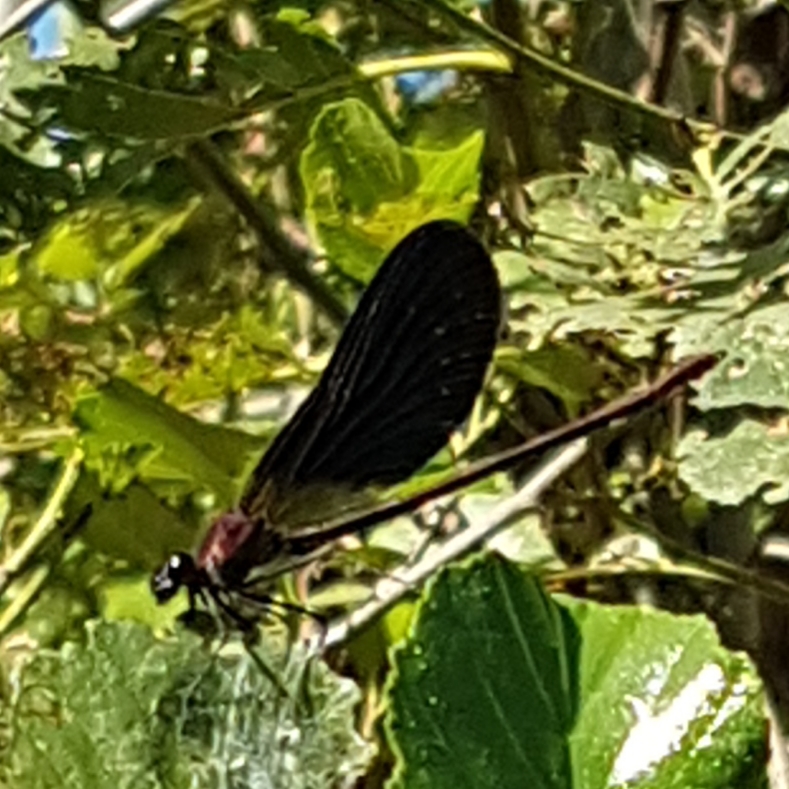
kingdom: Animalia
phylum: Arthropoda
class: Insecta
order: Odonata
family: Calopterygidae
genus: Calopteryx
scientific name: Calopteryx haemorrhoidalis
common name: Copper demoiselle
